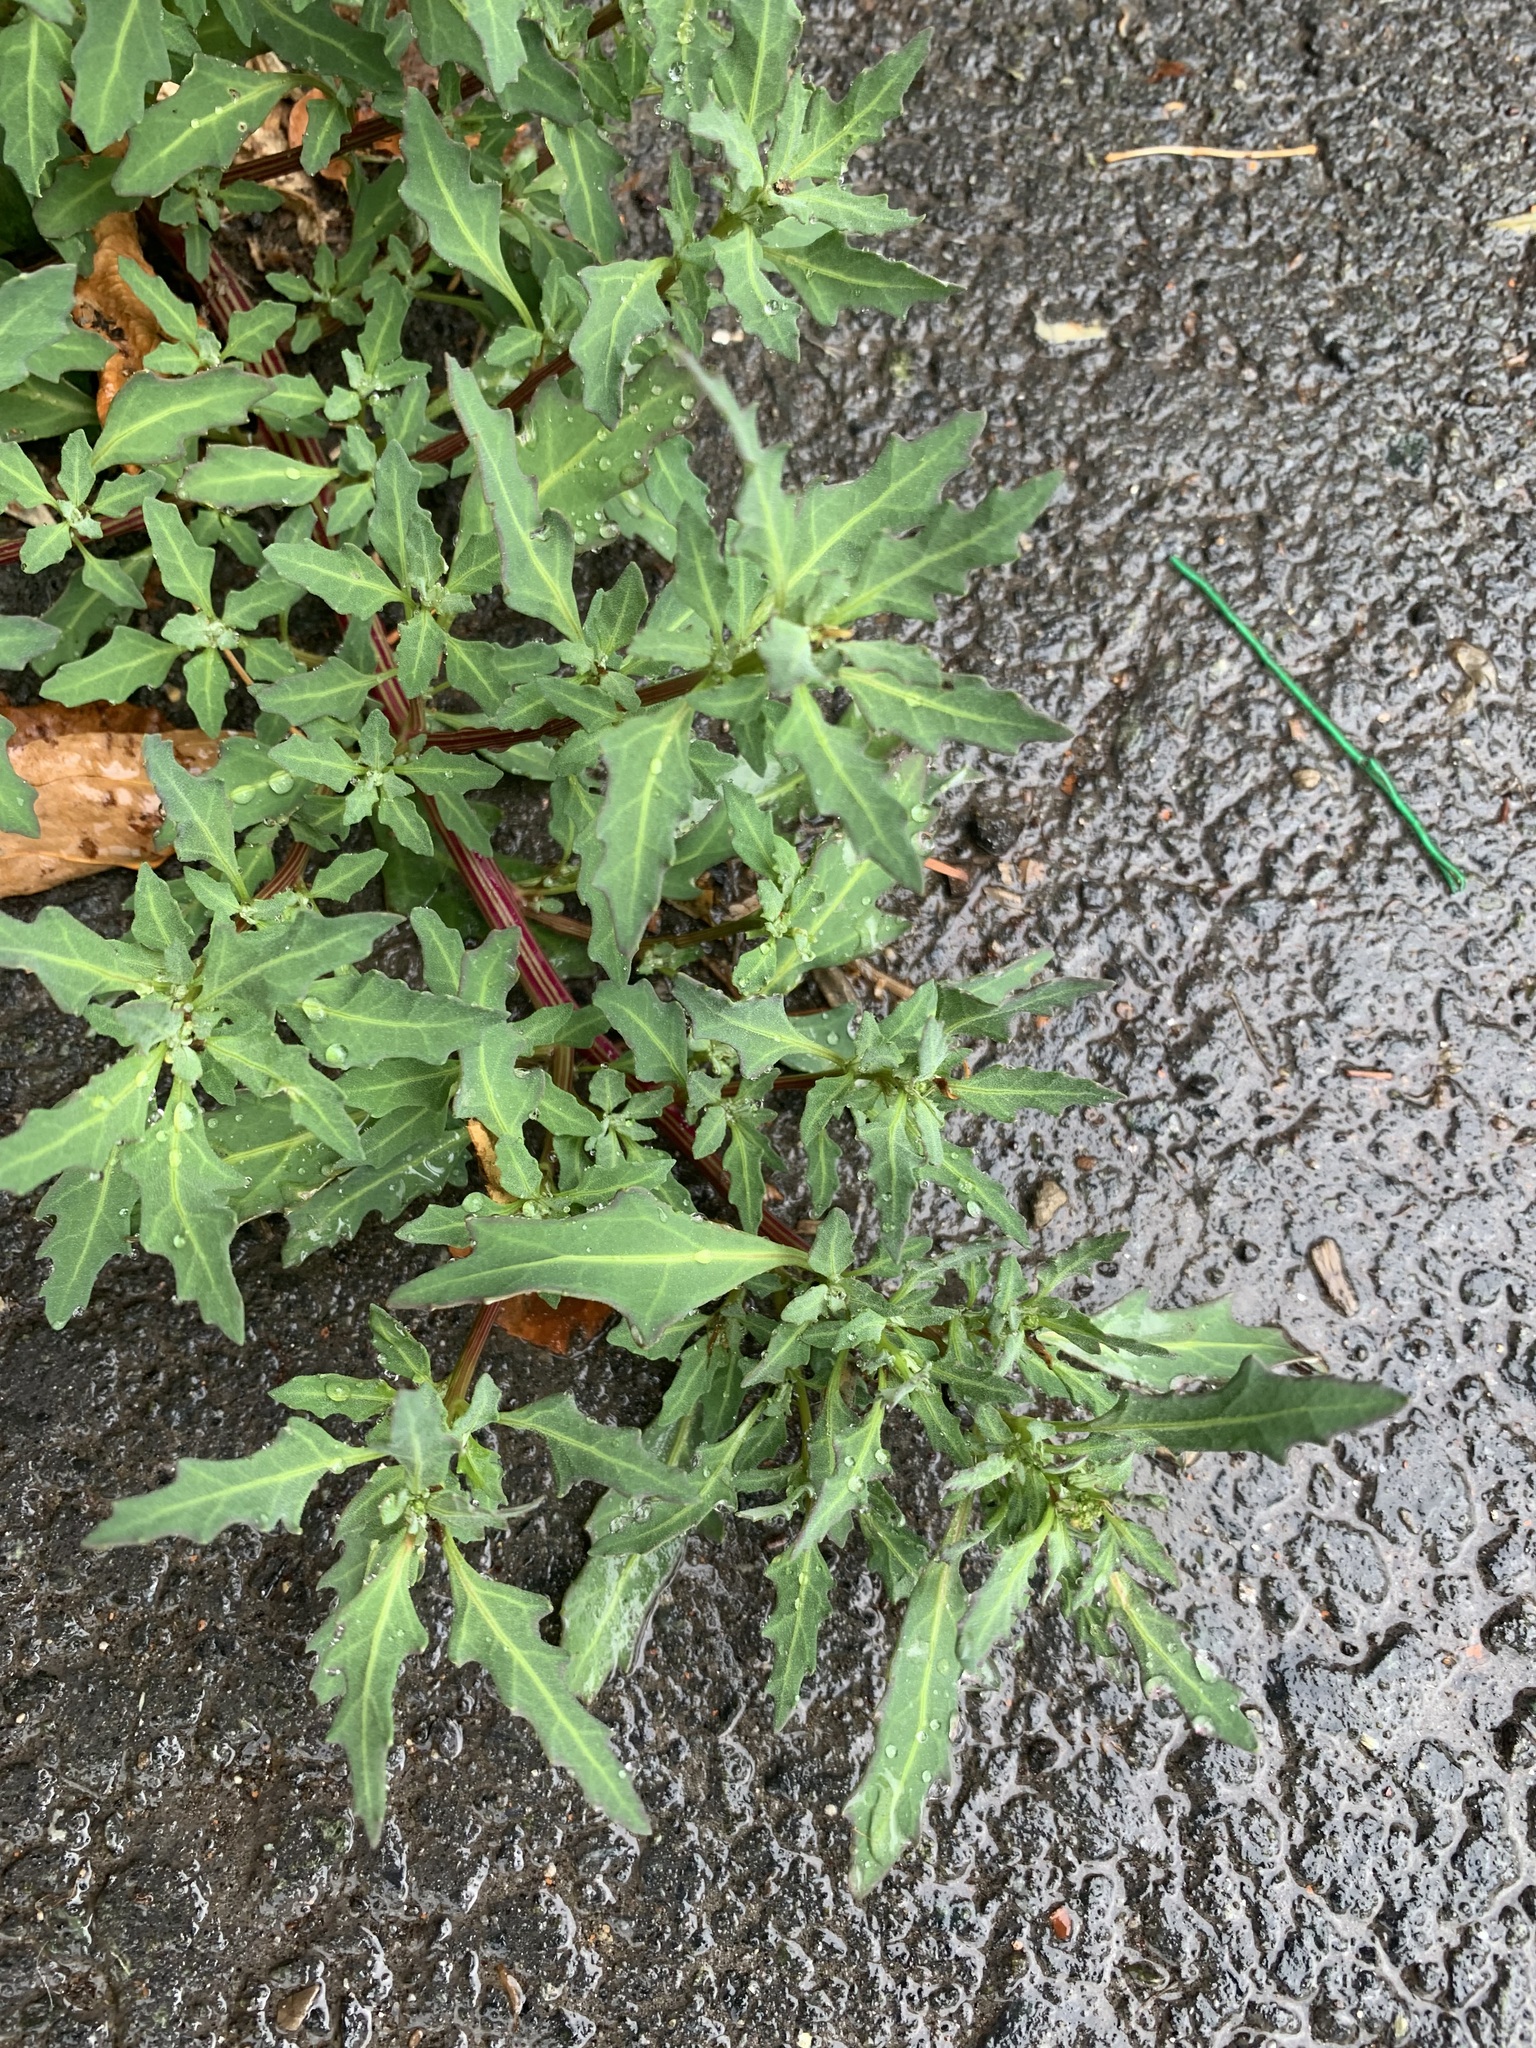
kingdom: Plantae
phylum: Tracheophyta
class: Magnoliopsida
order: Caryophyllales
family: Amaranthaceae
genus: Oxybasis
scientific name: Oxybasis glauca
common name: Glaucous goosefoot
